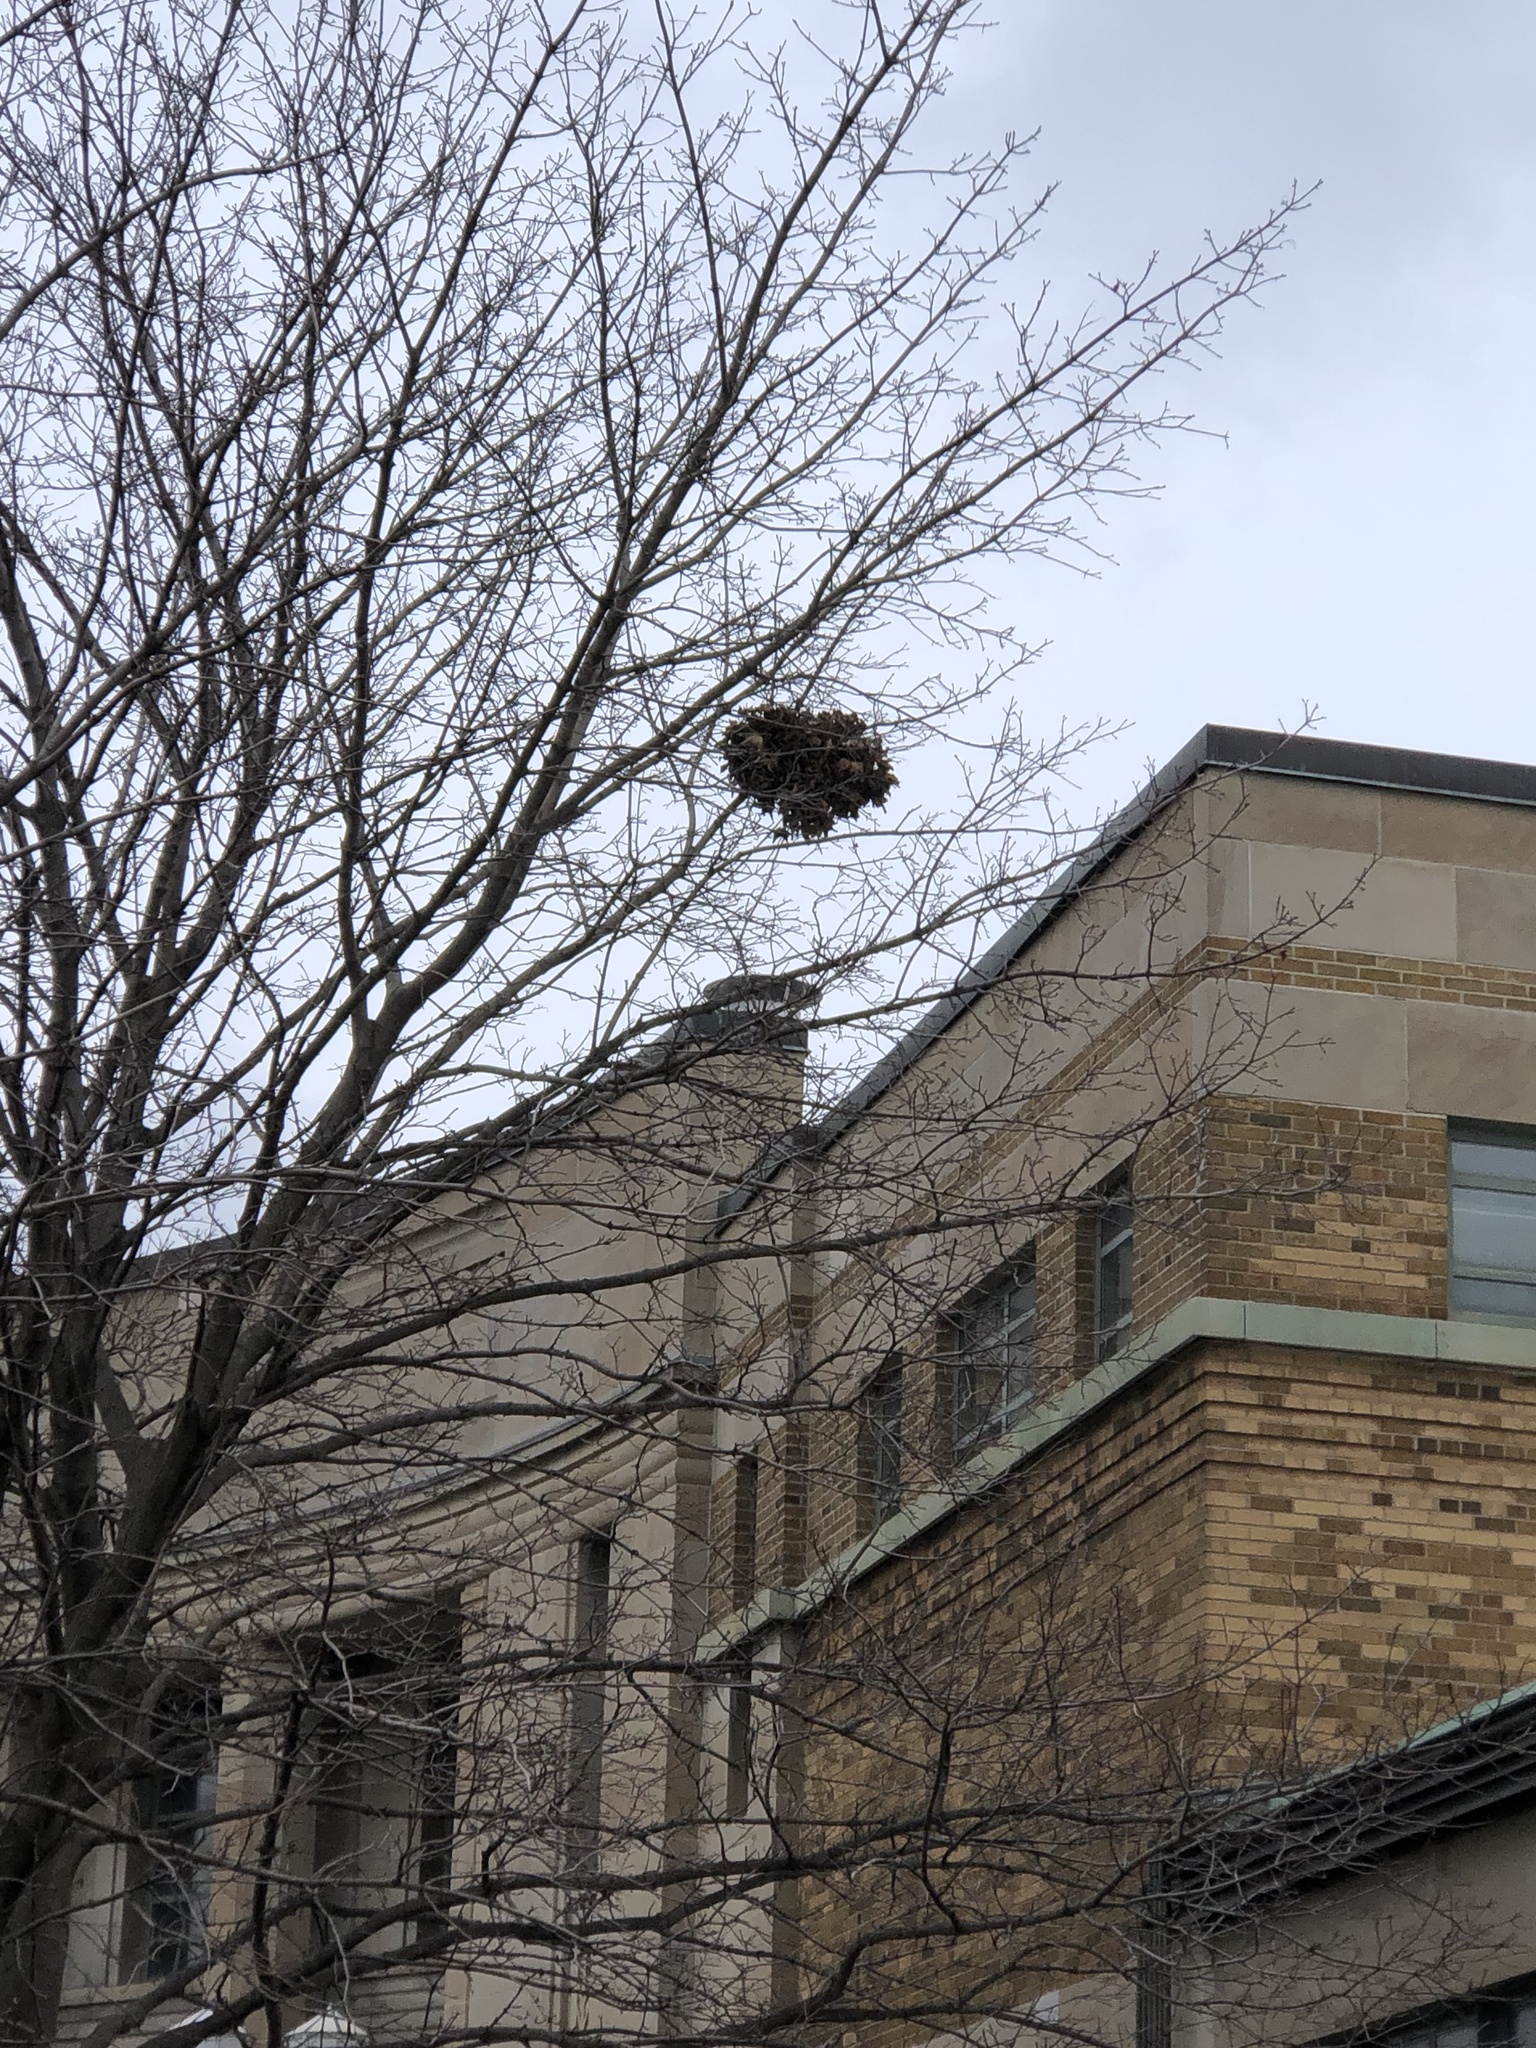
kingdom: Animalia
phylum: Chordata
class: Mammalia
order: Rodentia
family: Sciuridae
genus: Sciurus
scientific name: Sciurus carolinensis
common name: Eastern gray squirrel
